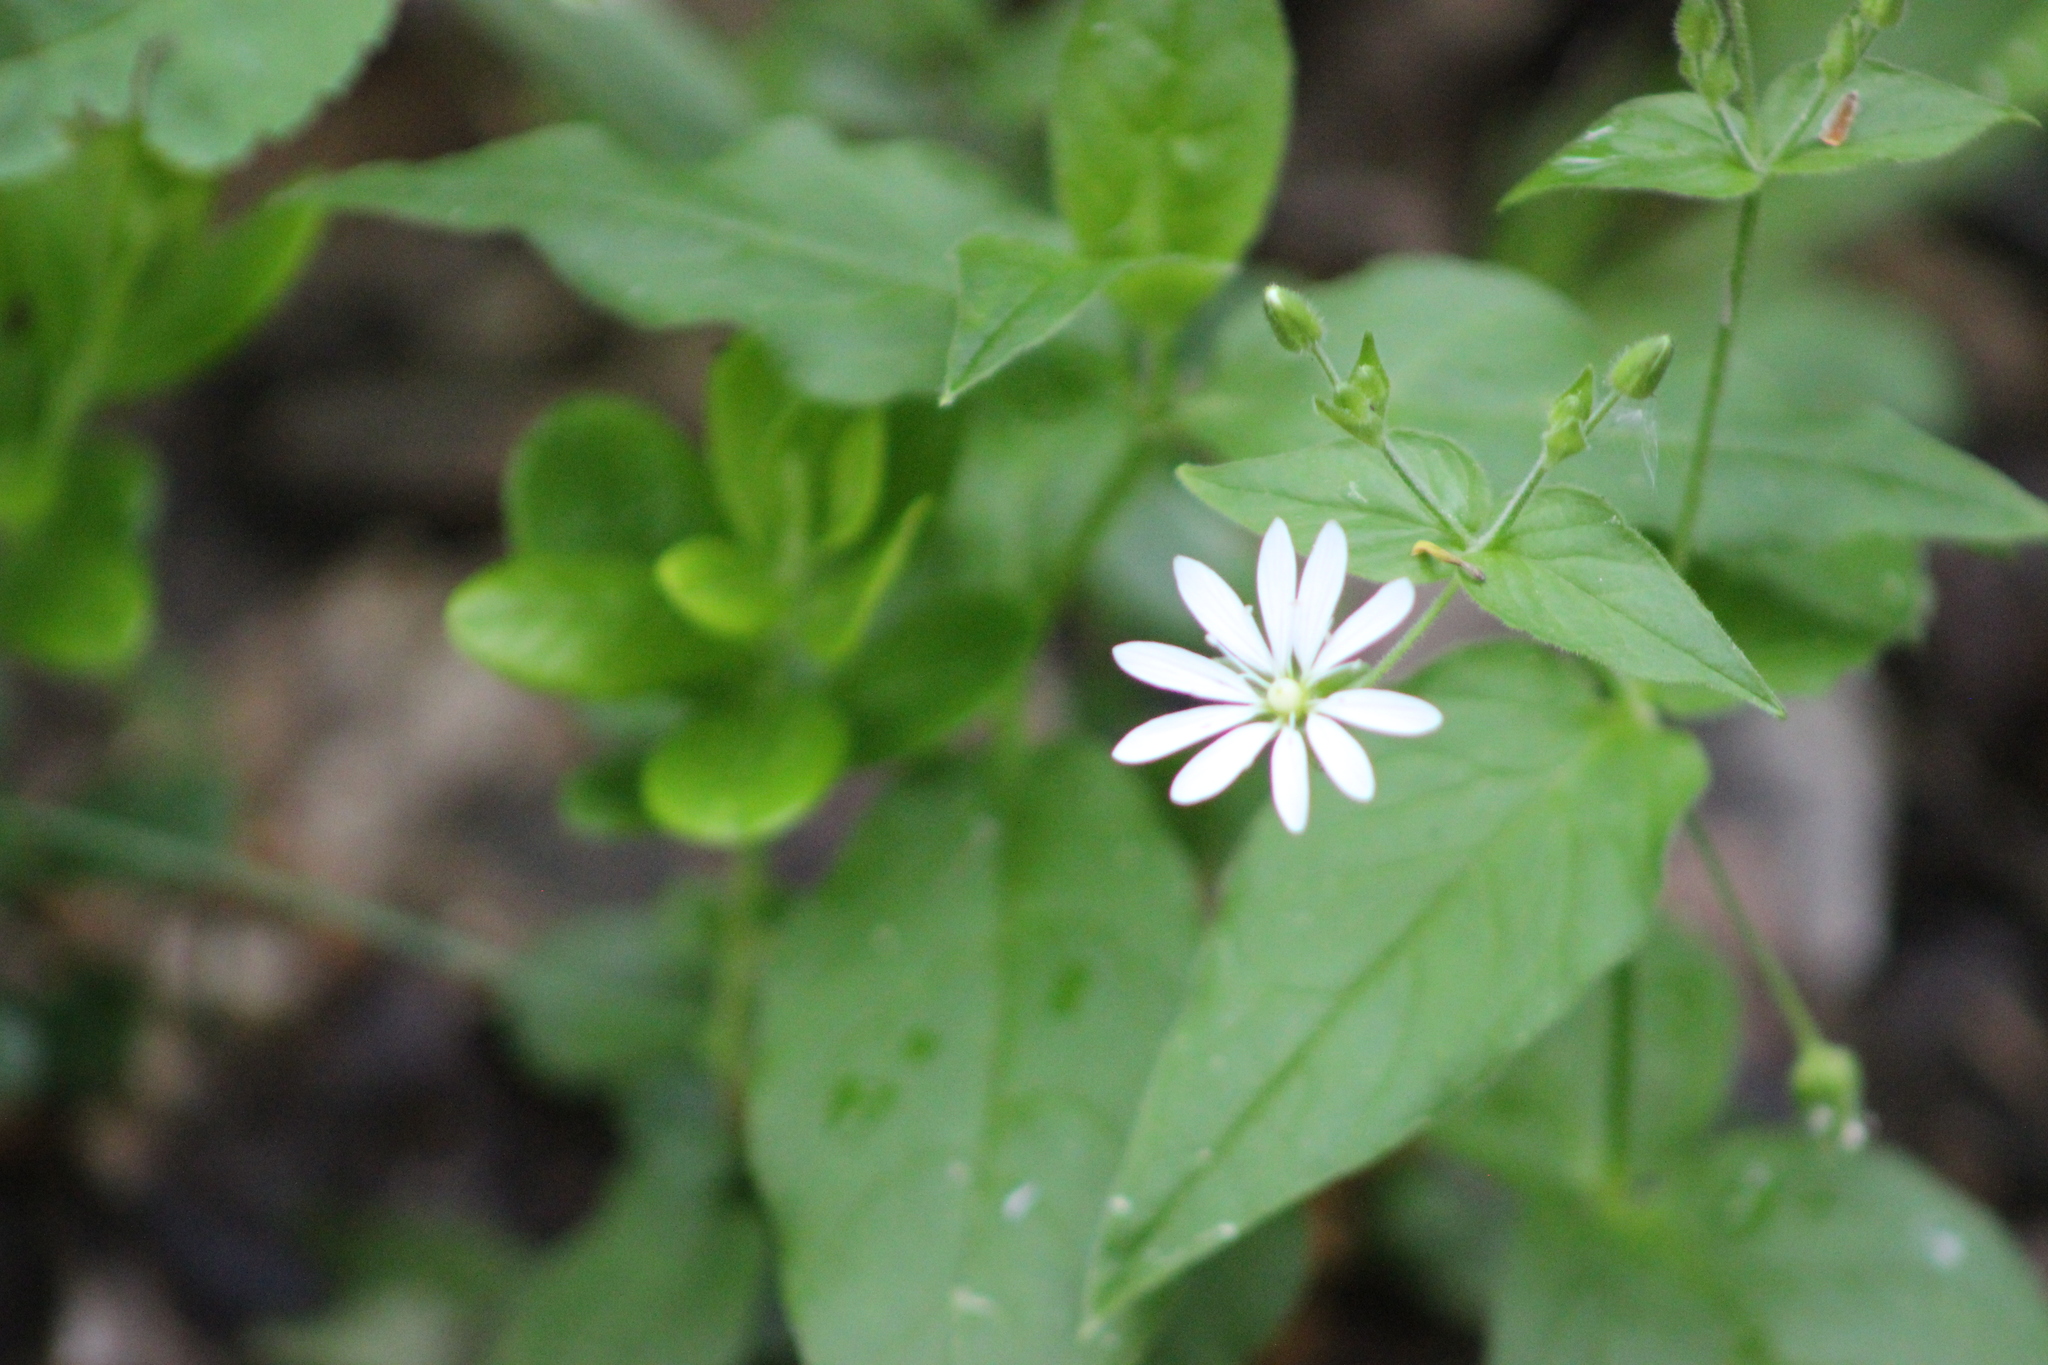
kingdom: Plantae
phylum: Tracheophyta
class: Magnoliopsida
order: Caryophyllales
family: Caryophyllaceae
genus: Stellaria
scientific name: Stellaria bungeana
